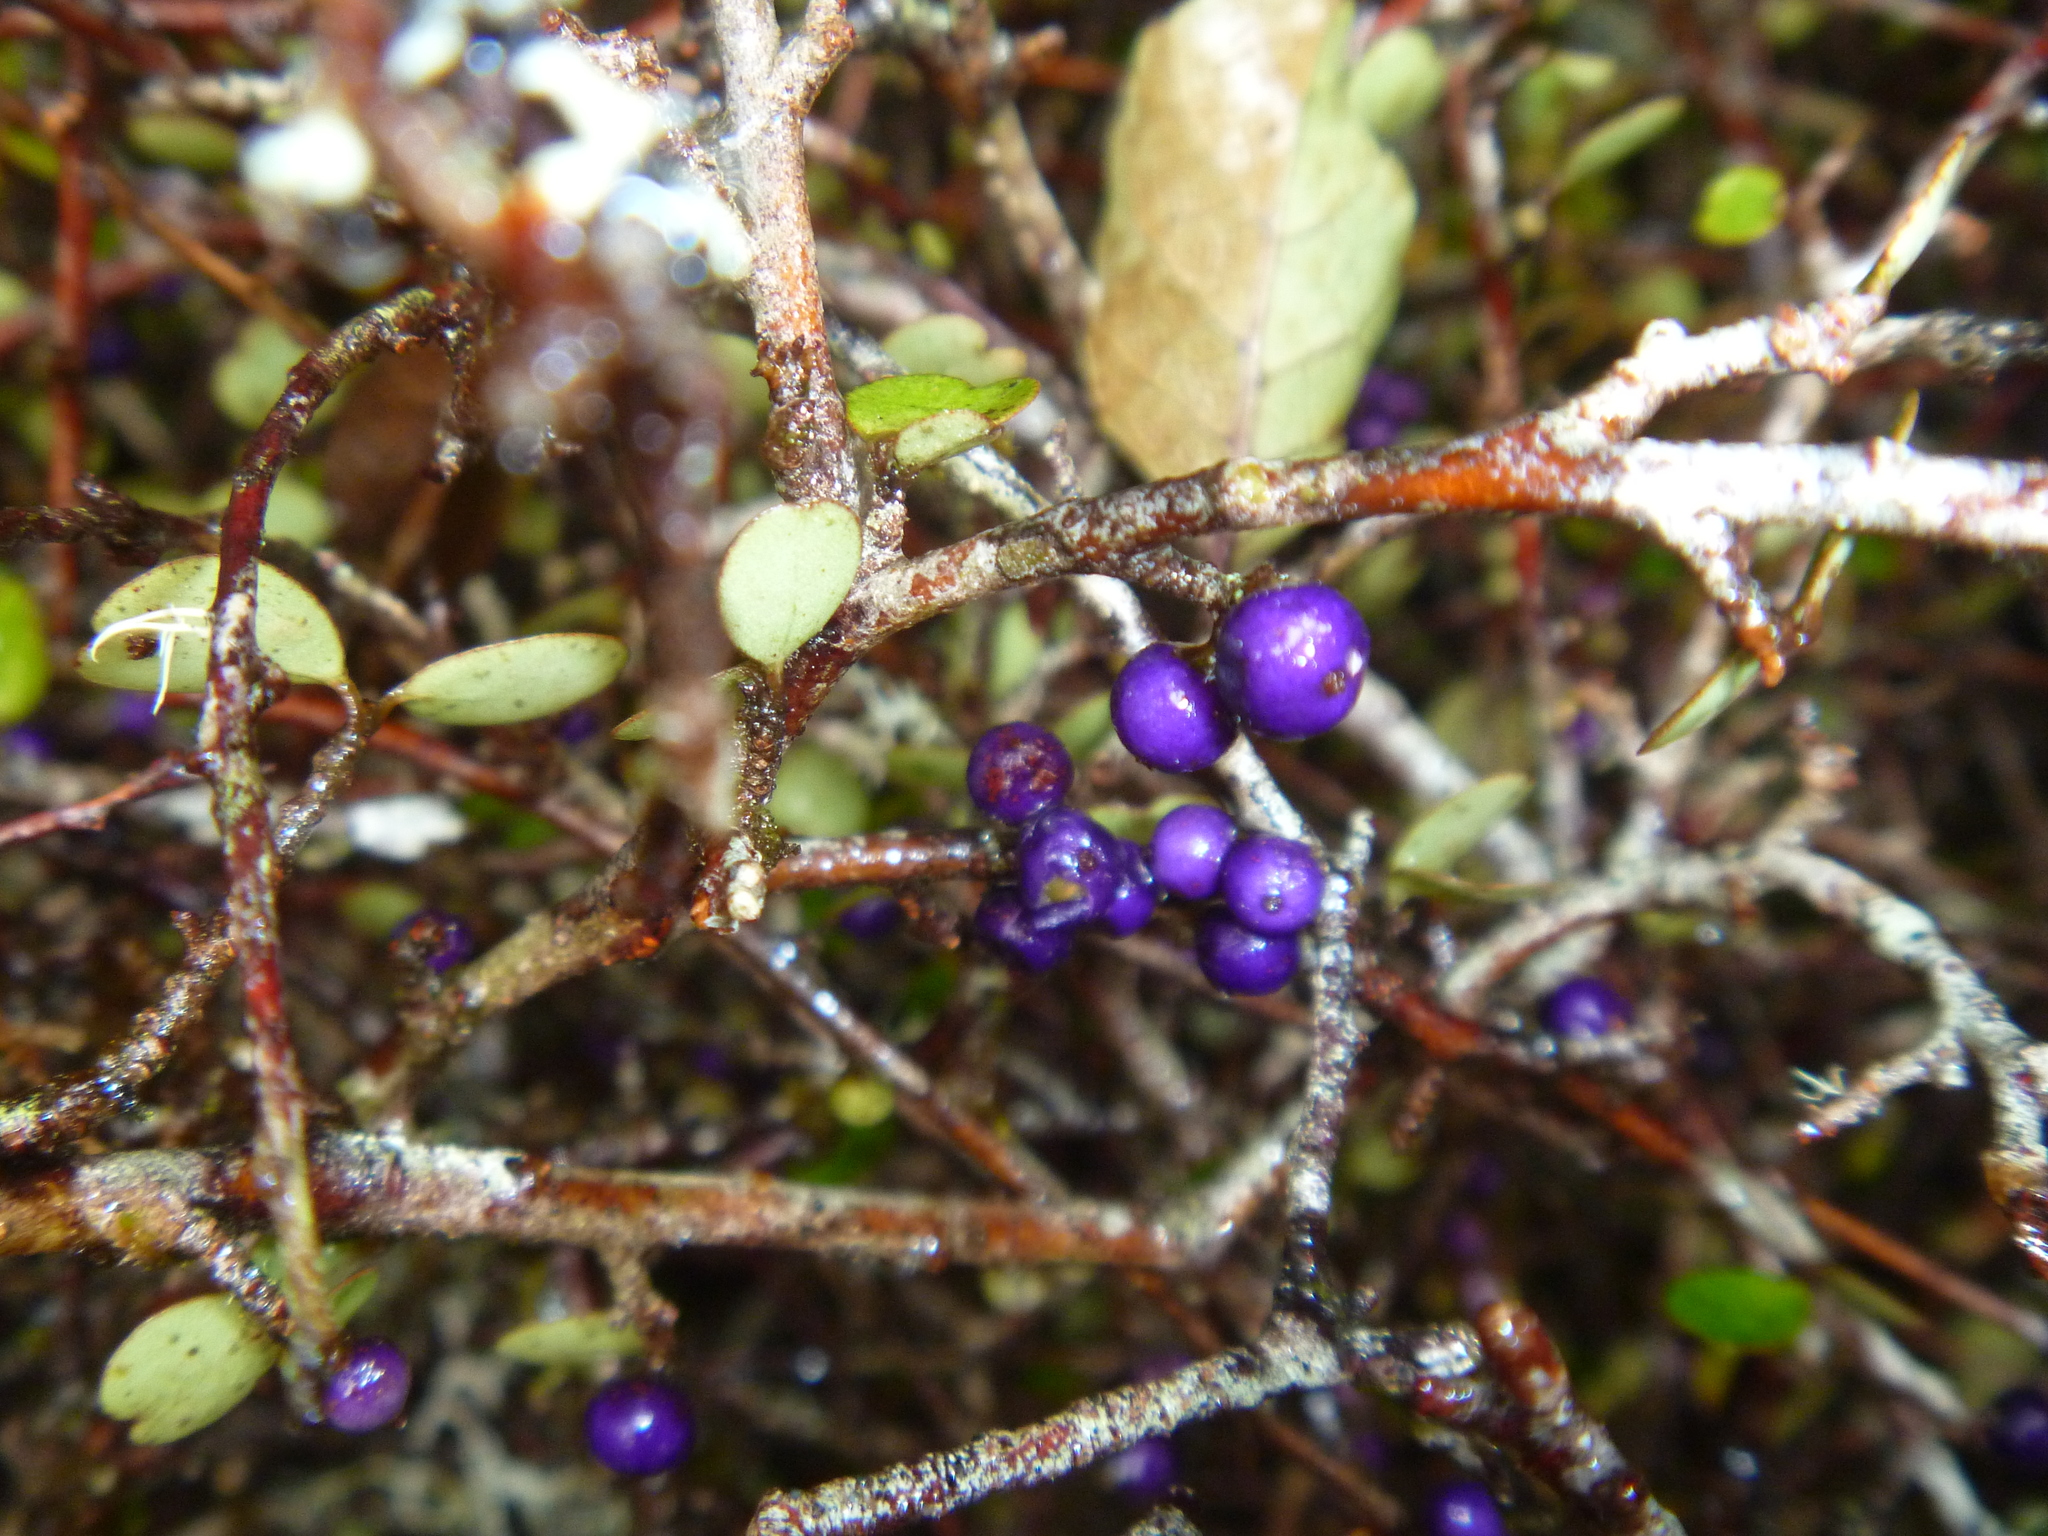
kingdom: Plantae
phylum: Tracheophyta
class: Magnoliopsida
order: Ericales
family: Primulaceae
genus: Myrsine
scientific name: Myrsine divaricata
